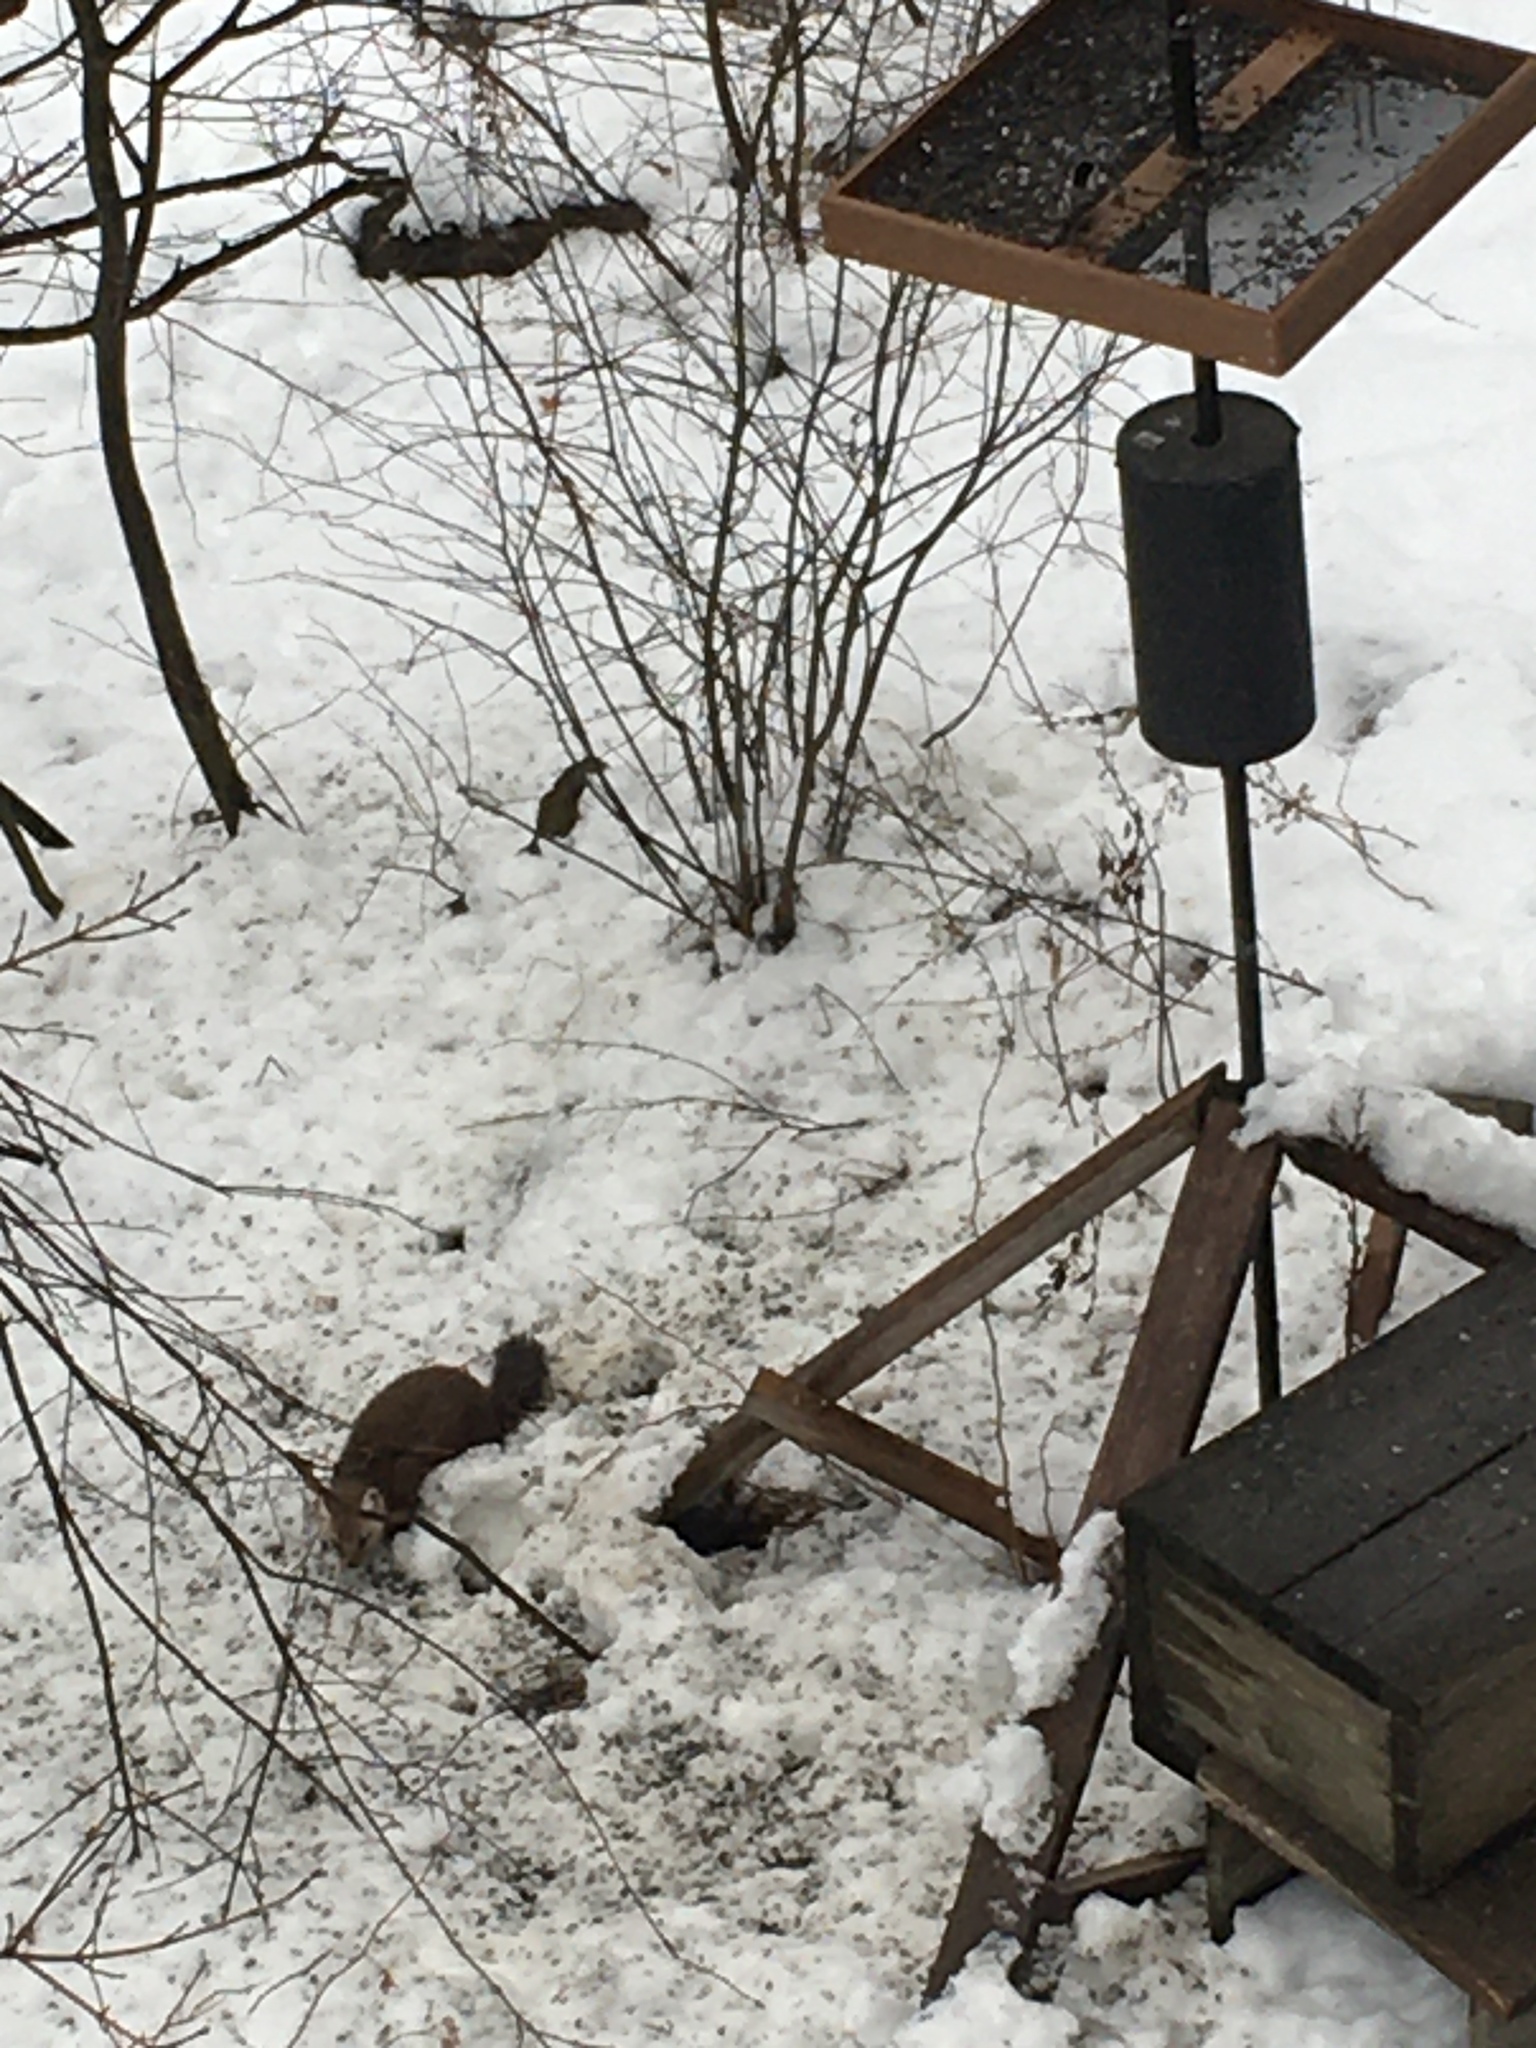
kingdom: Animalia
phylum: Chordata
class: Mammalia
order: Carnivora
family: Mustelidae
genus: Martes
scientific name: Martes americana
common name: American marten
